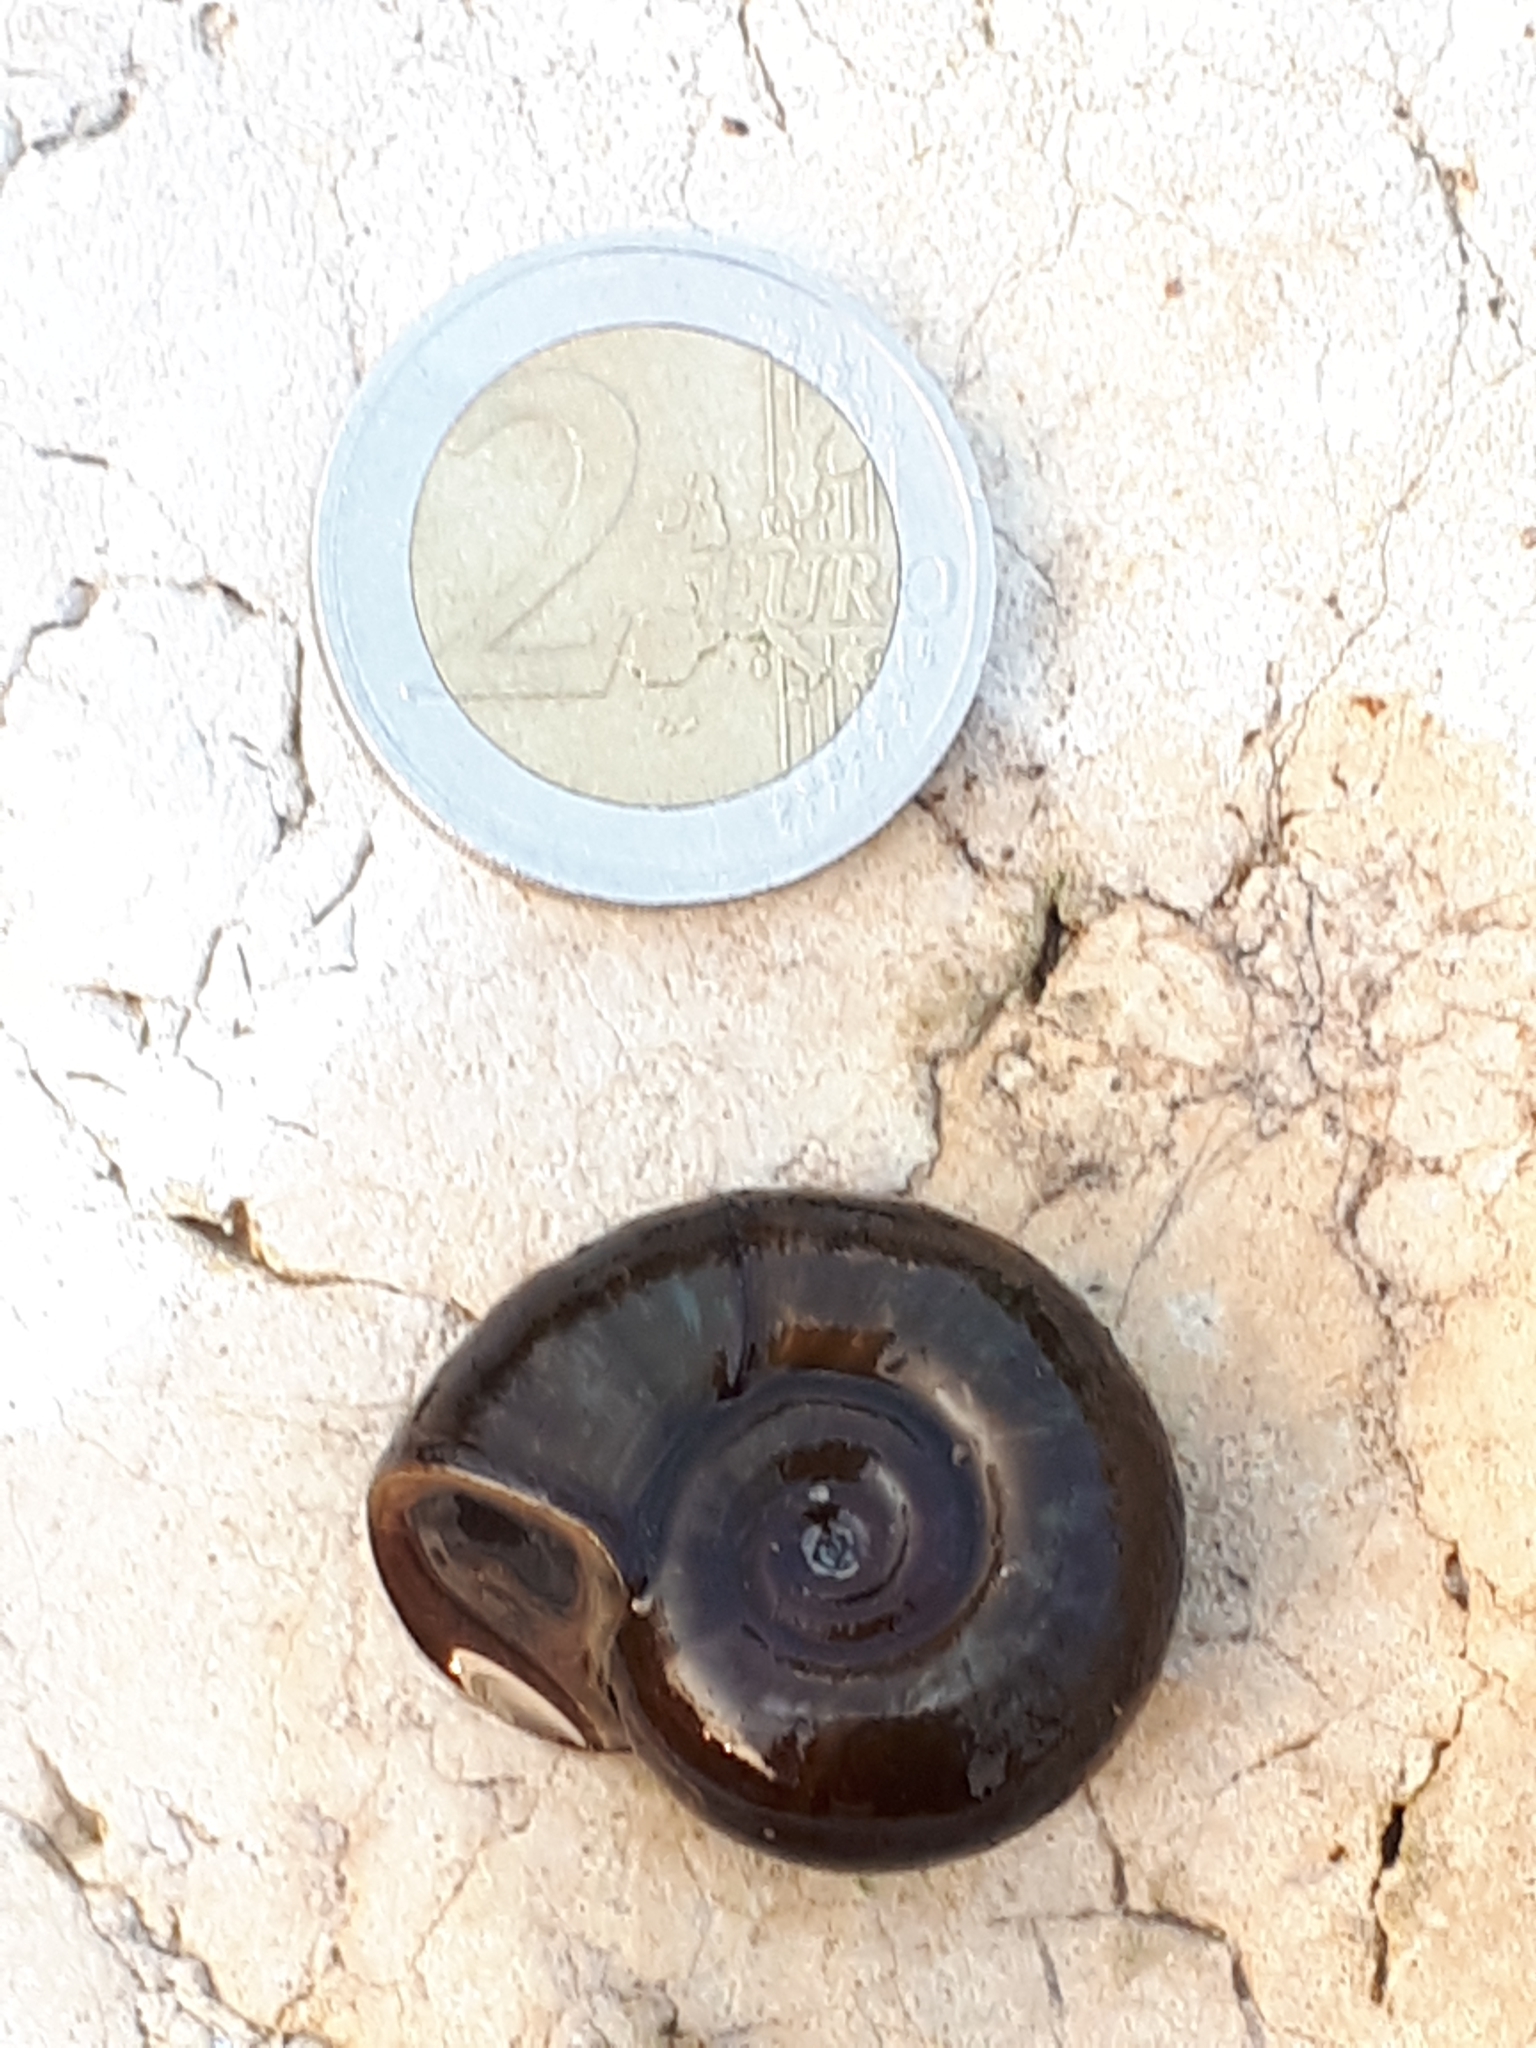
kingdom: Animalia
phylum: Mollusca
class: Gastropoda
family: Planorbidae
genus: Planorbarius
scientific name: Planorbarius corneus
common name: Great ramshorn
